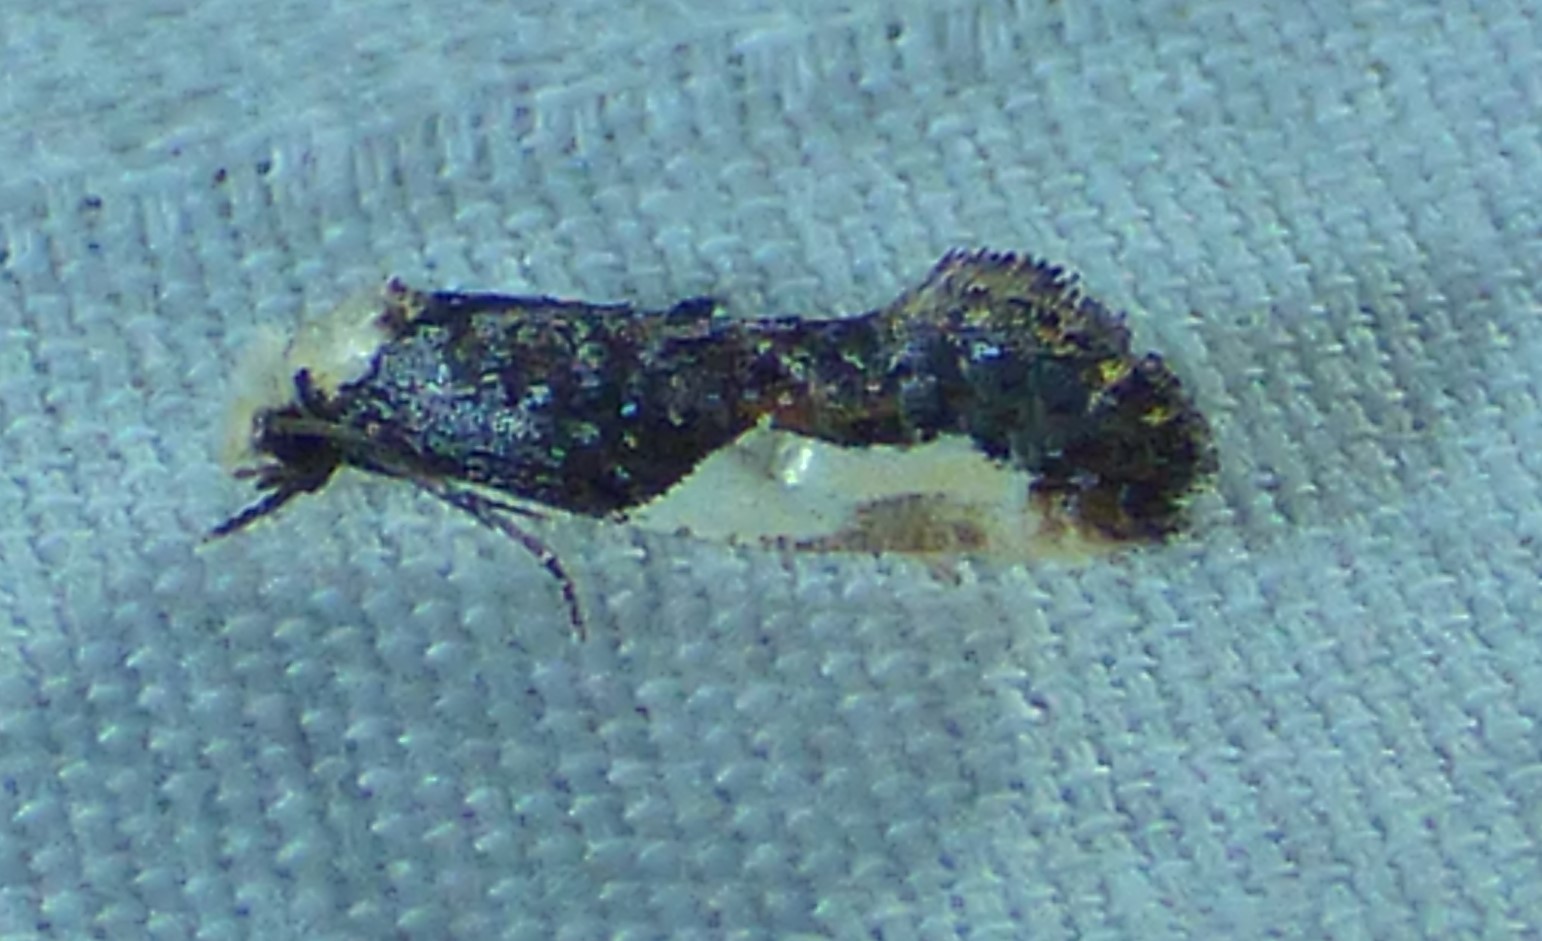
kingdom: Animalia
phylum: Arthropoda
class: Insecta
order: Lepidoptera
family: Tineidae
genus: Monopis
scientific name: Monopis longella
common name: Pavlovski's monopis moth
